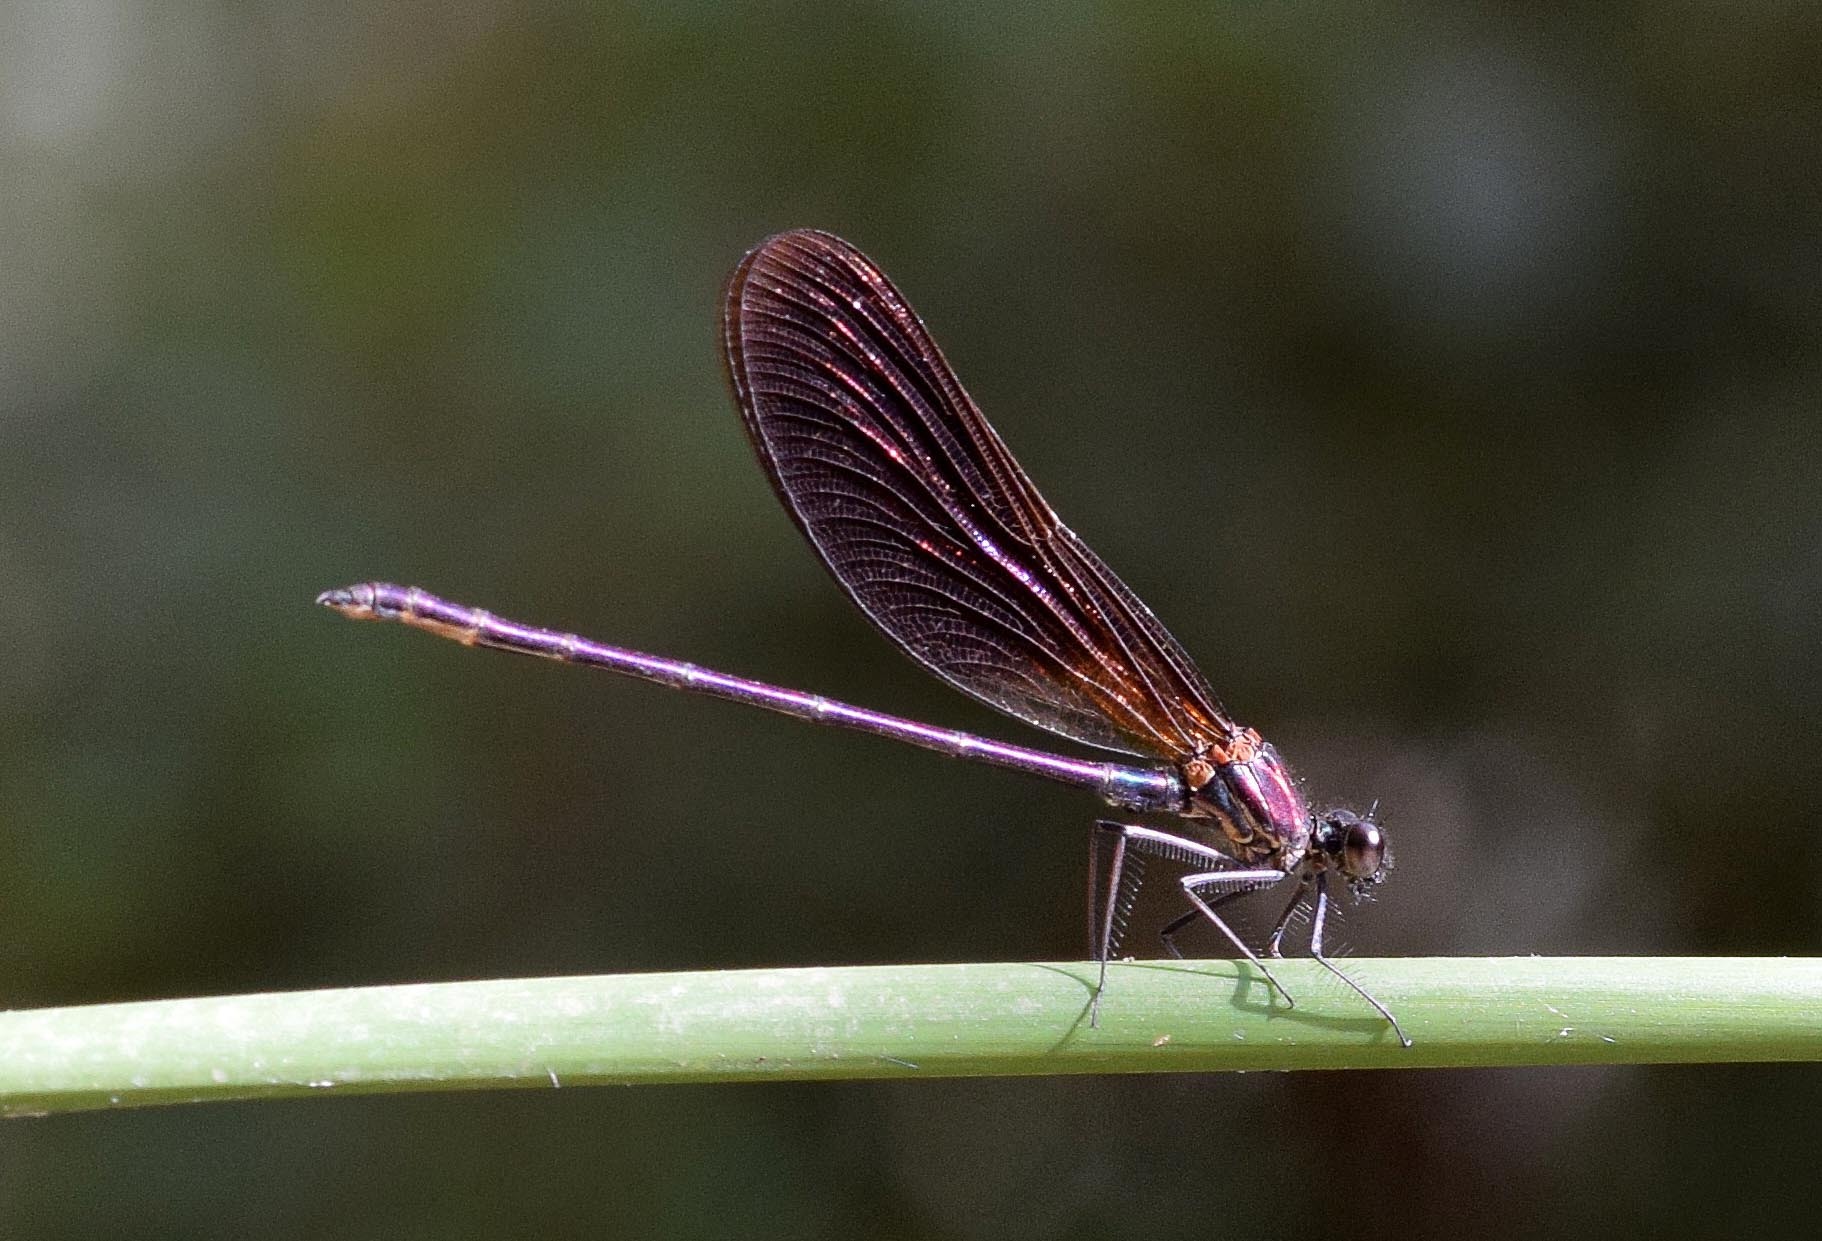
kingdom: Animalia
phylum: Arthropoda
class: Insecta
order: Odonata
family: Calopterygidae
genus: Calopteryx
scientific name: Calopteryx haemorrhoidalis
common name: Copper demoiselle
